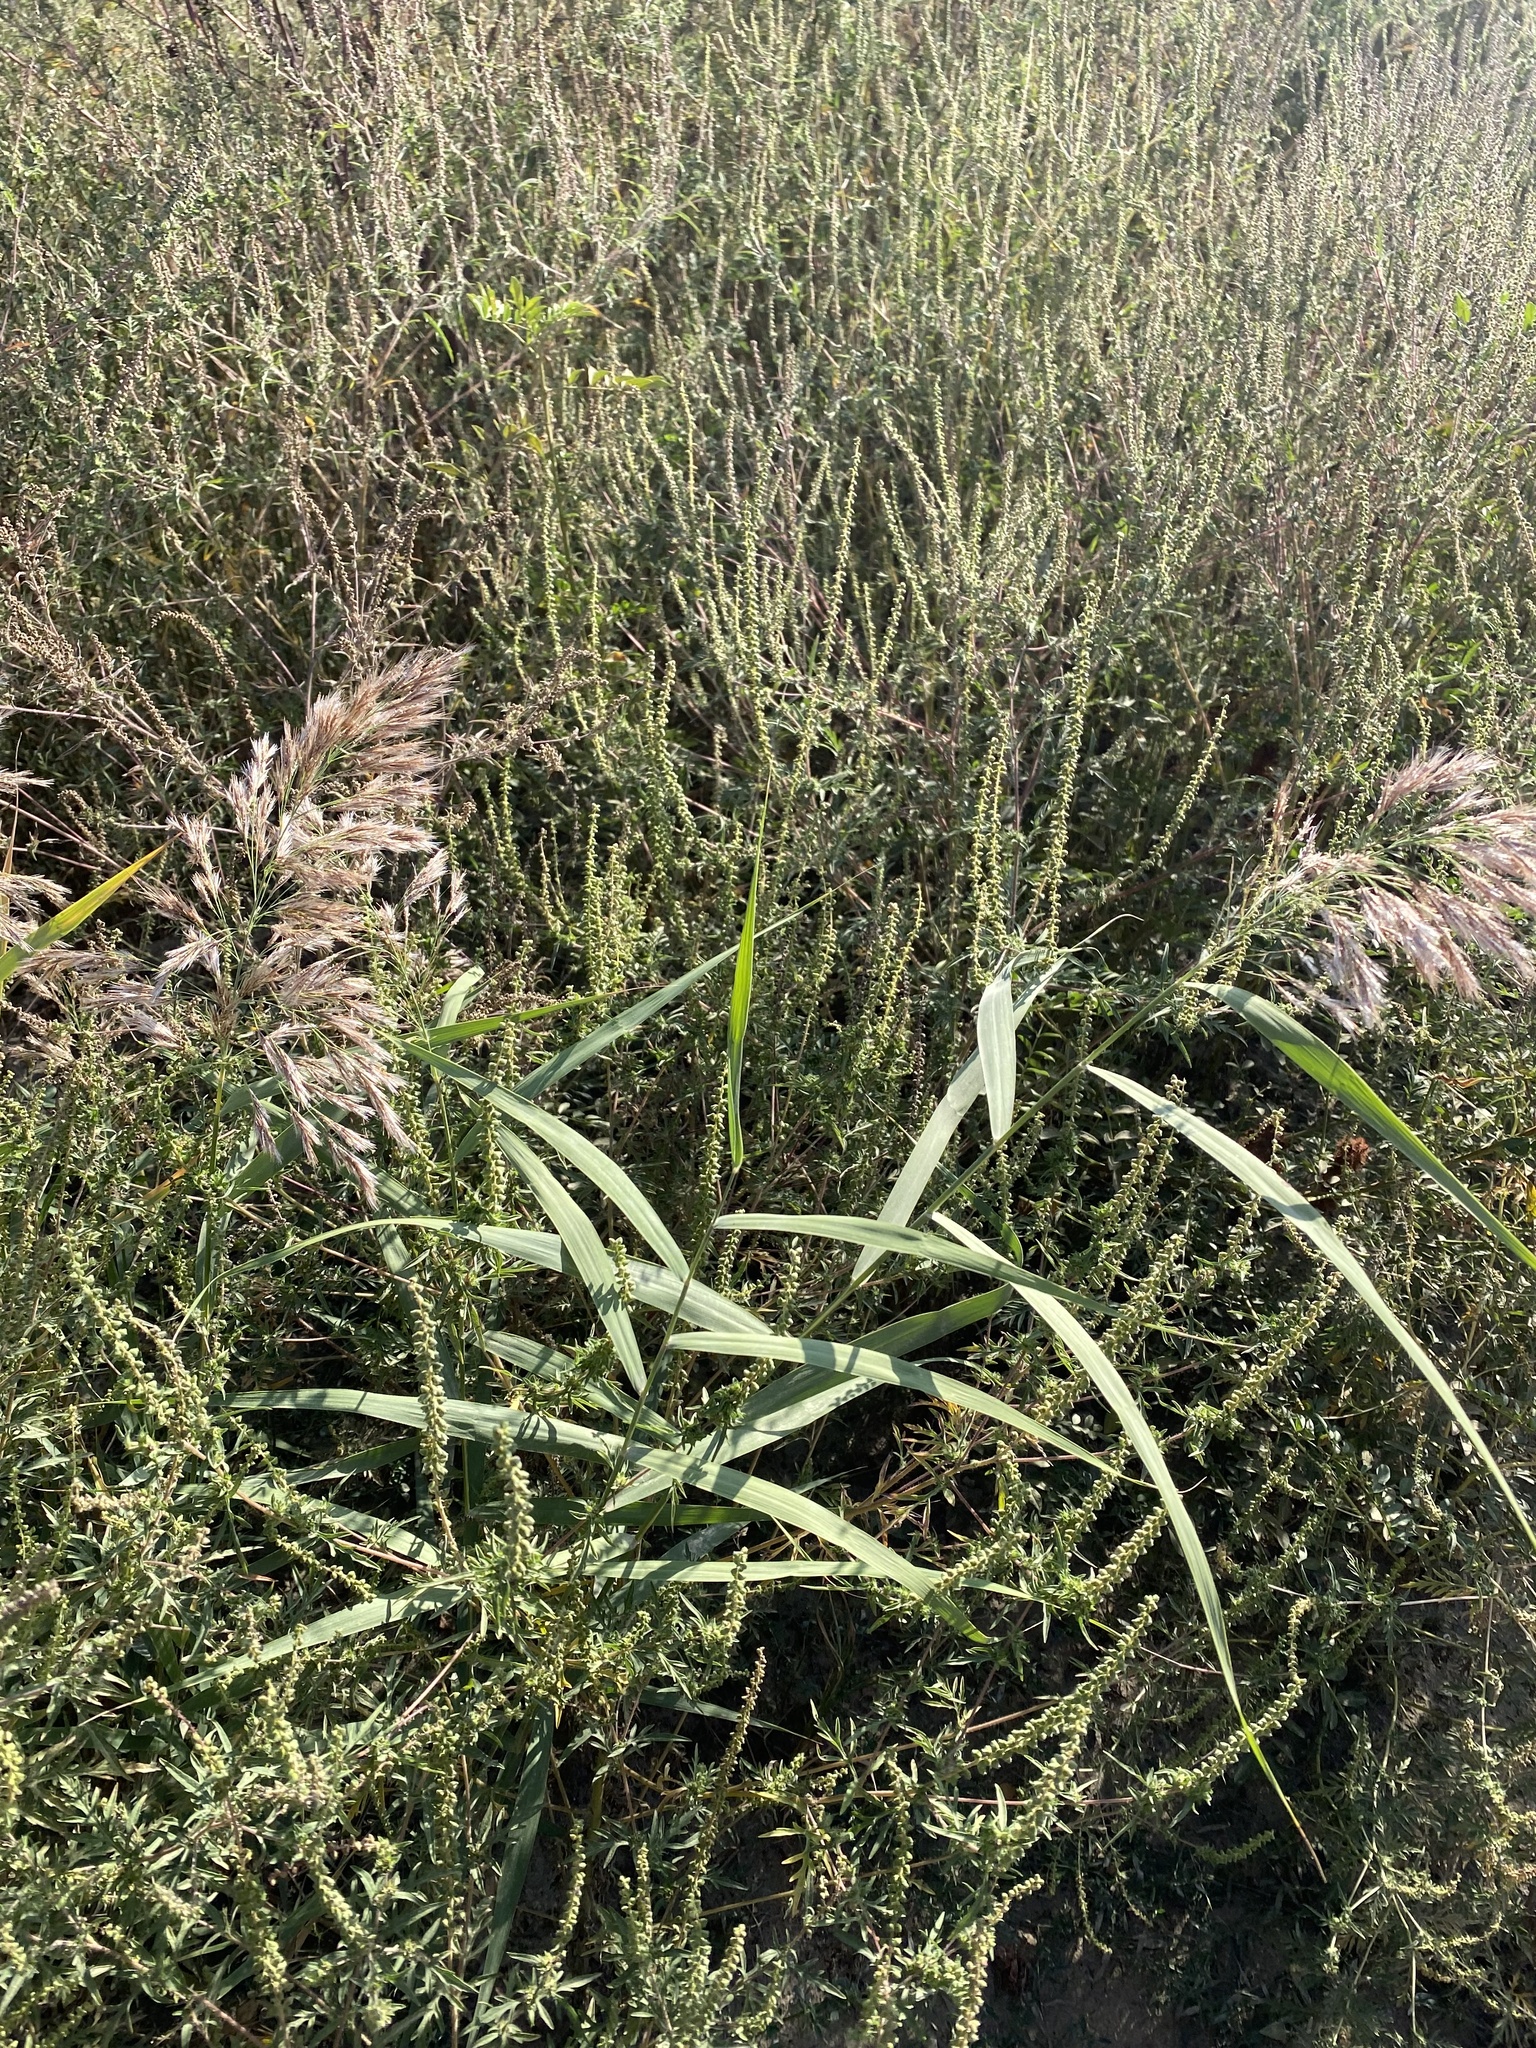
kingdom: Plantae
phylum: Tracheophyta
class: Liliopsida
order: Poales
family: Poaceae
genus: Phragmites
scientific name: Phragmites australis
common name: Common reed
